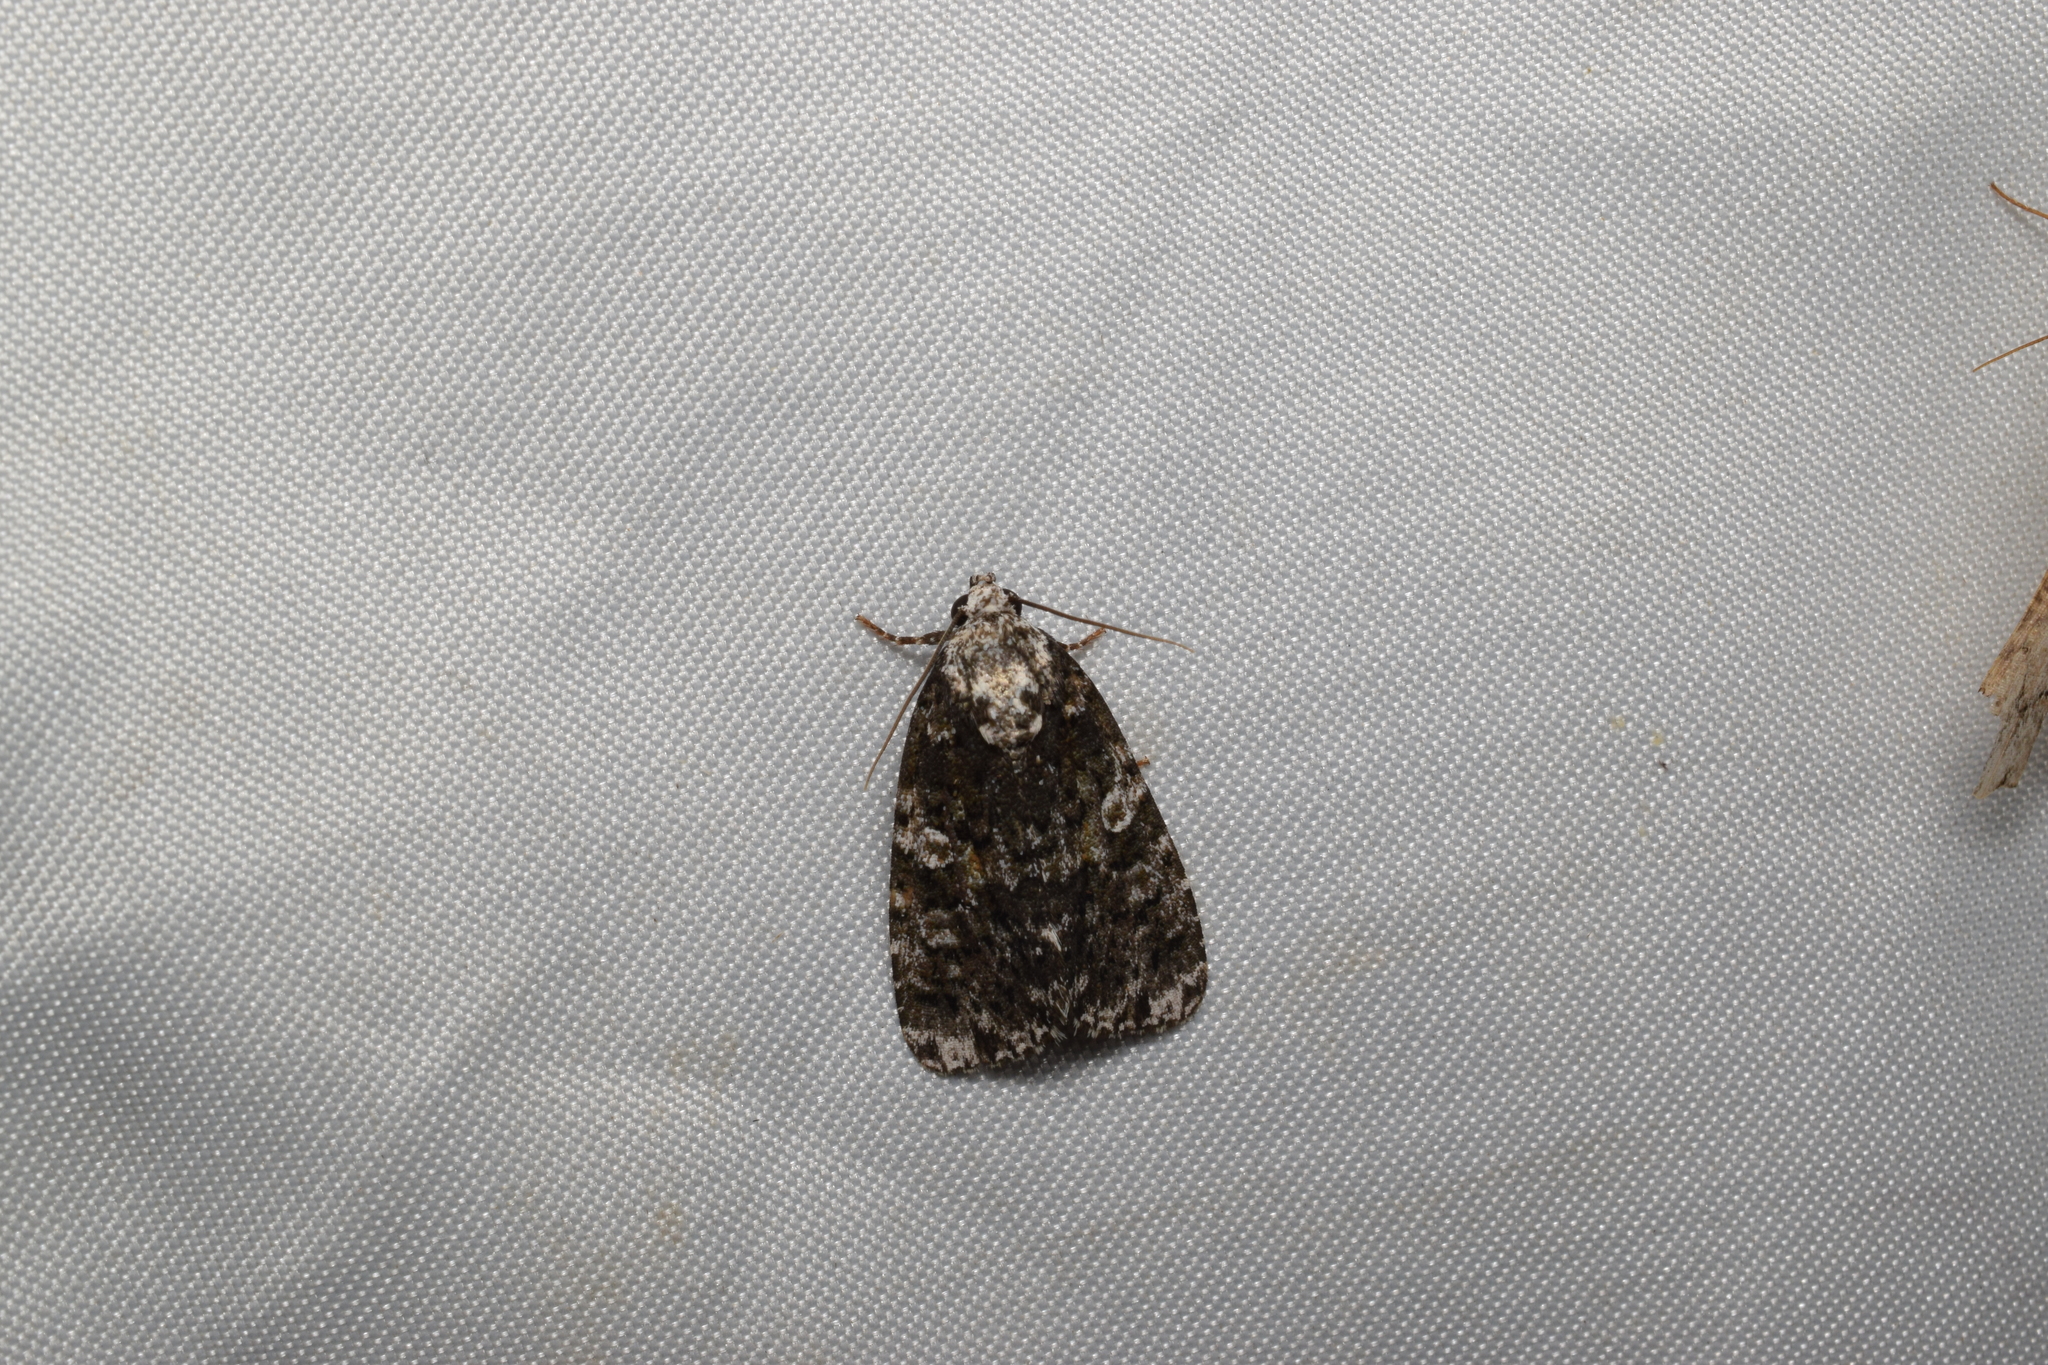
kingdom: Animalia
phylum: Arthropoda
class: Insecta
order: Lepidoptera
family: Noctuidae
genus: Narcotica
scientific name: Narcotica niveosparsa
